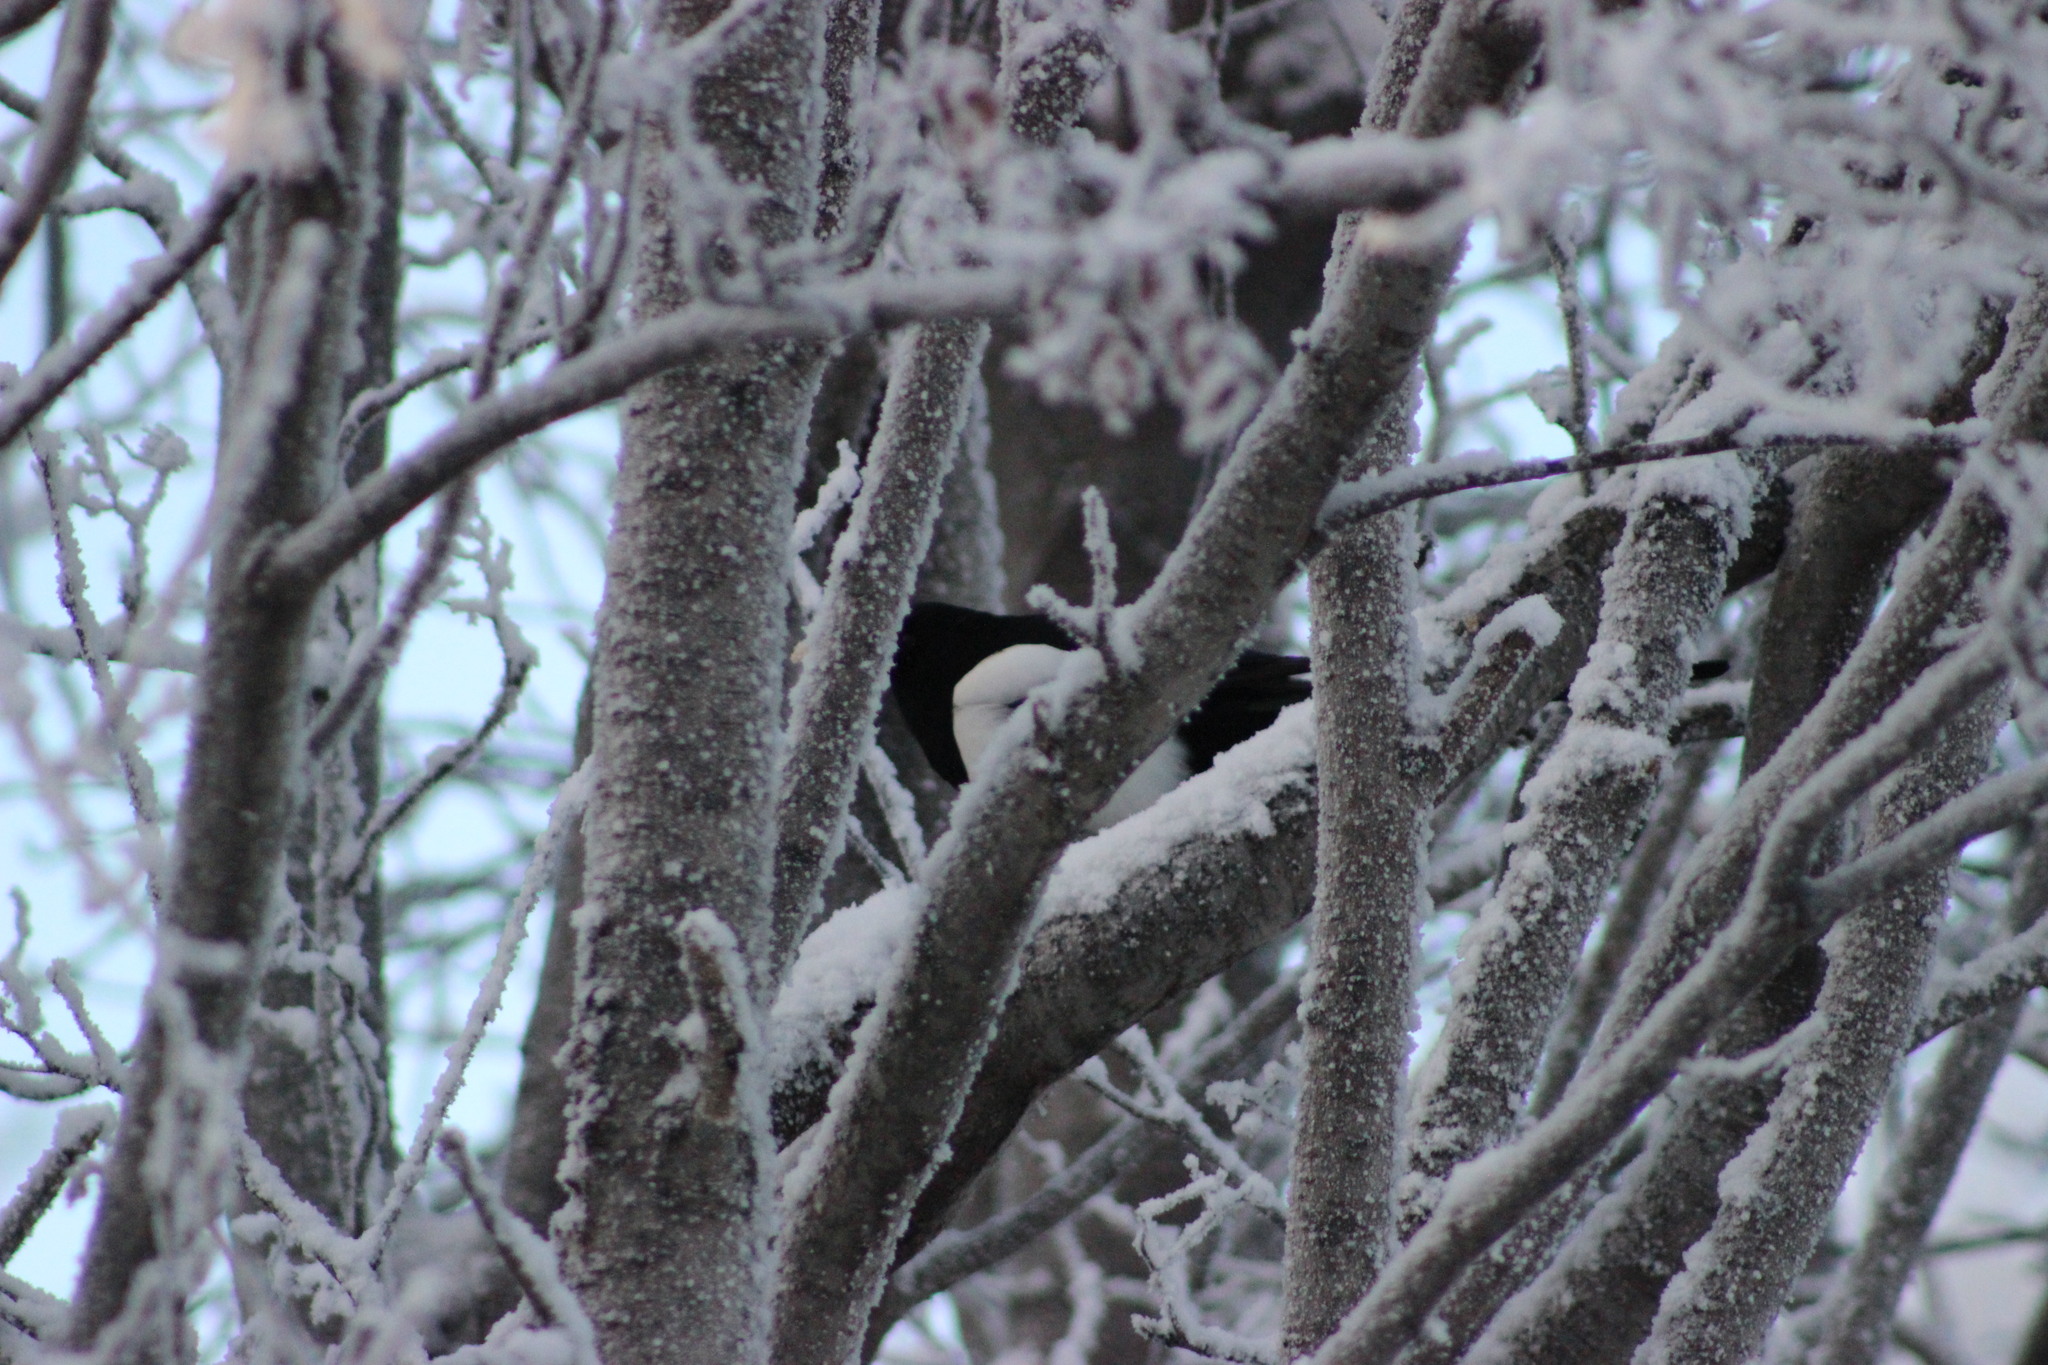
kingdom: Animalia
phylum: Chordata
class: Aves
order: Passeriformes
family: Corvidae
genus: Pica
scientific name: Pica pica
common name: Eurasian magpie
